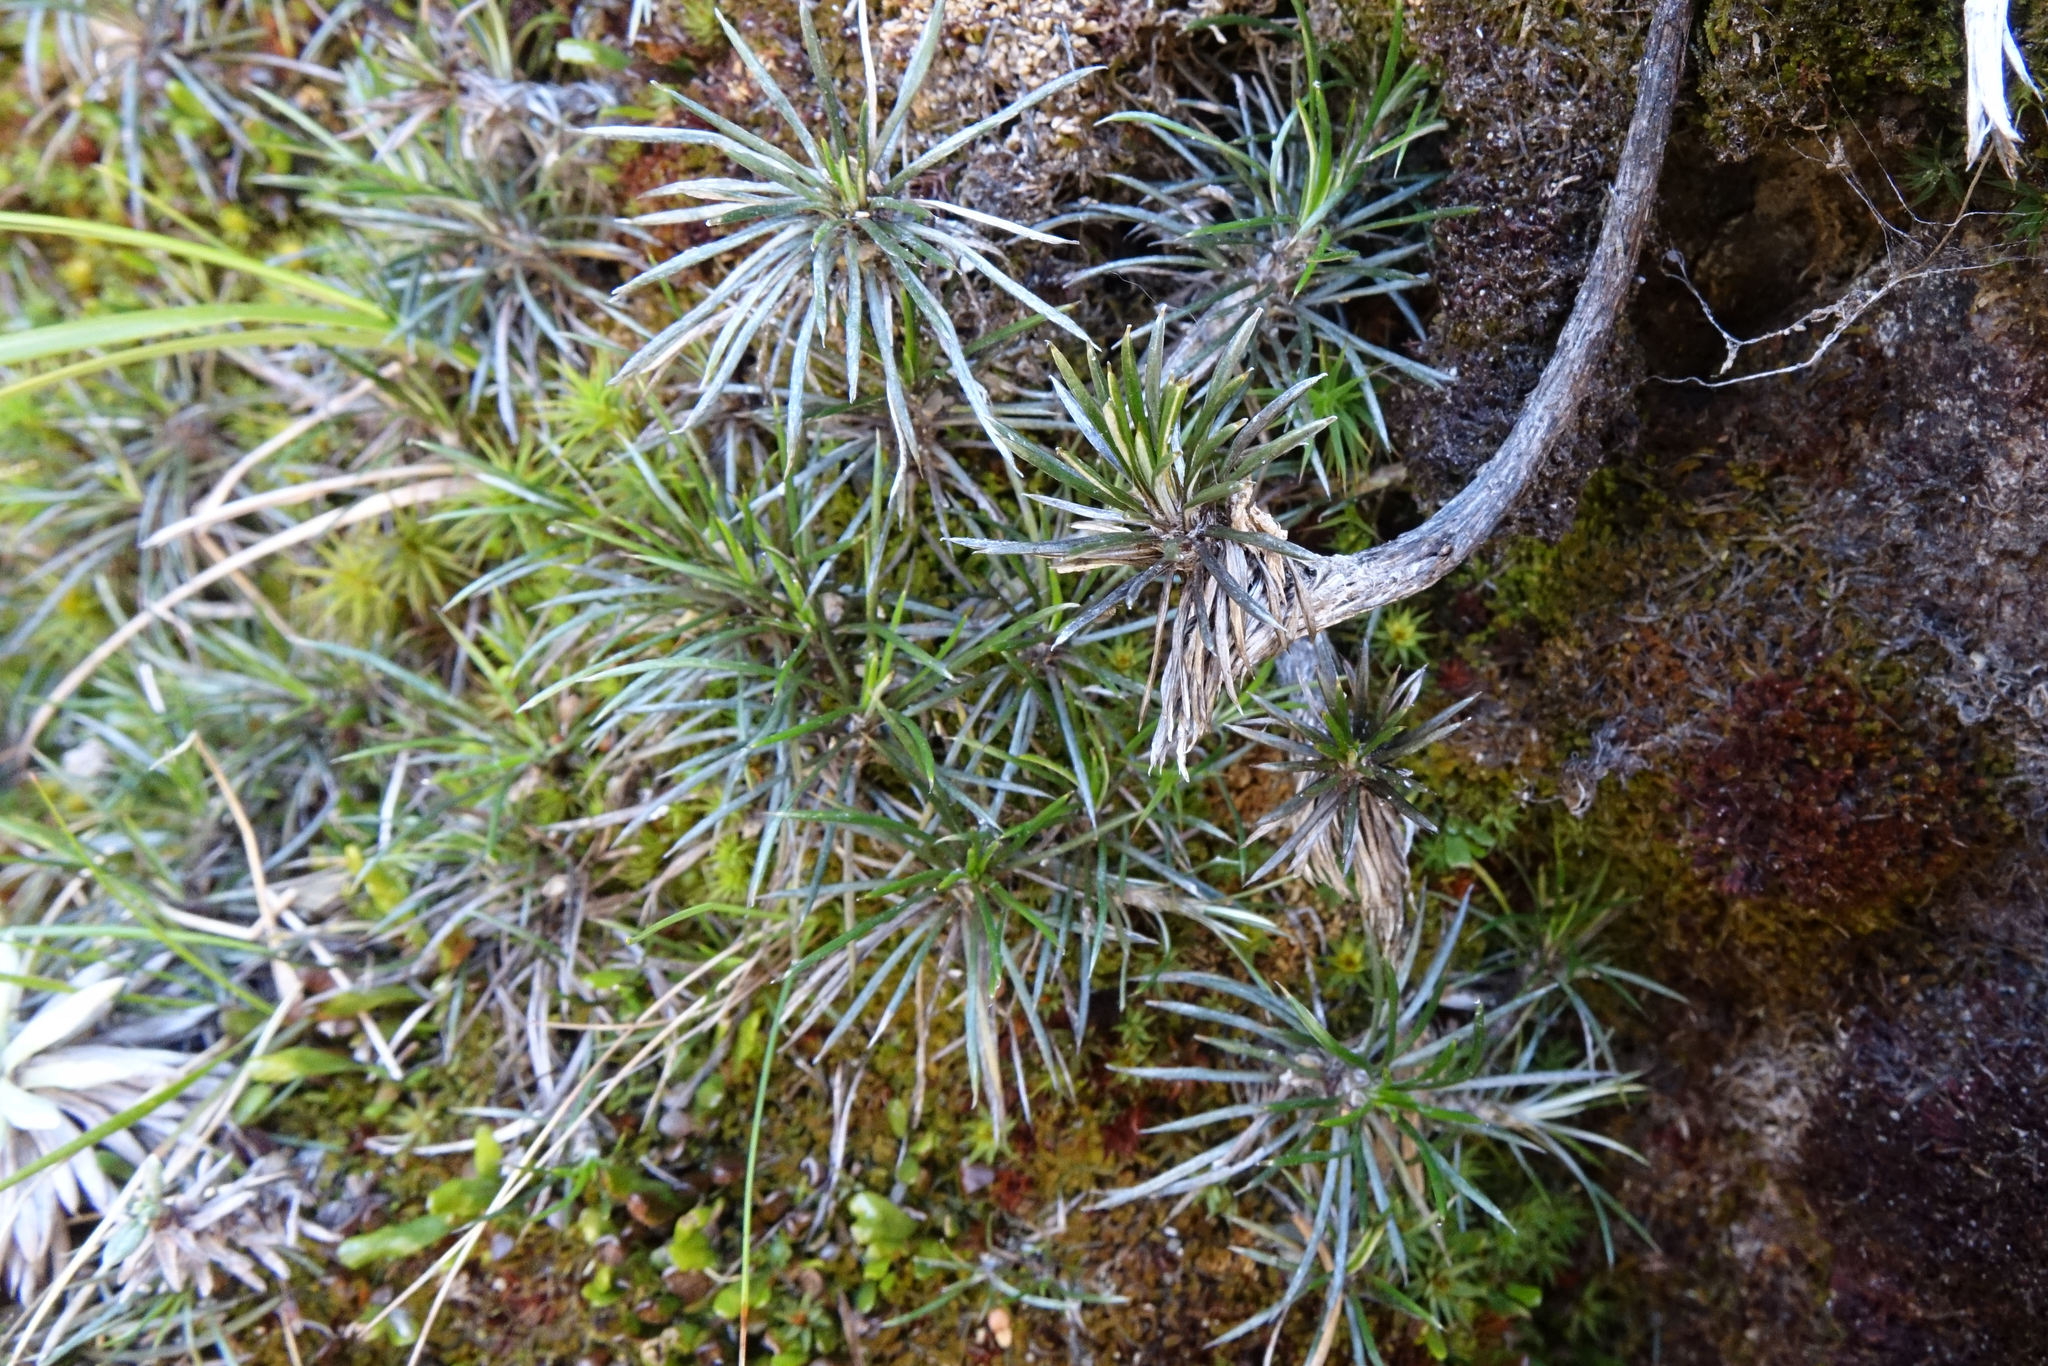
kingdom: Plantae
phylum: Tracheophyta
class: Magnoliopsida
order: Asterales
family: Asteraceae
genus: Celmisia
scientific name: Celmisia laricifolia
